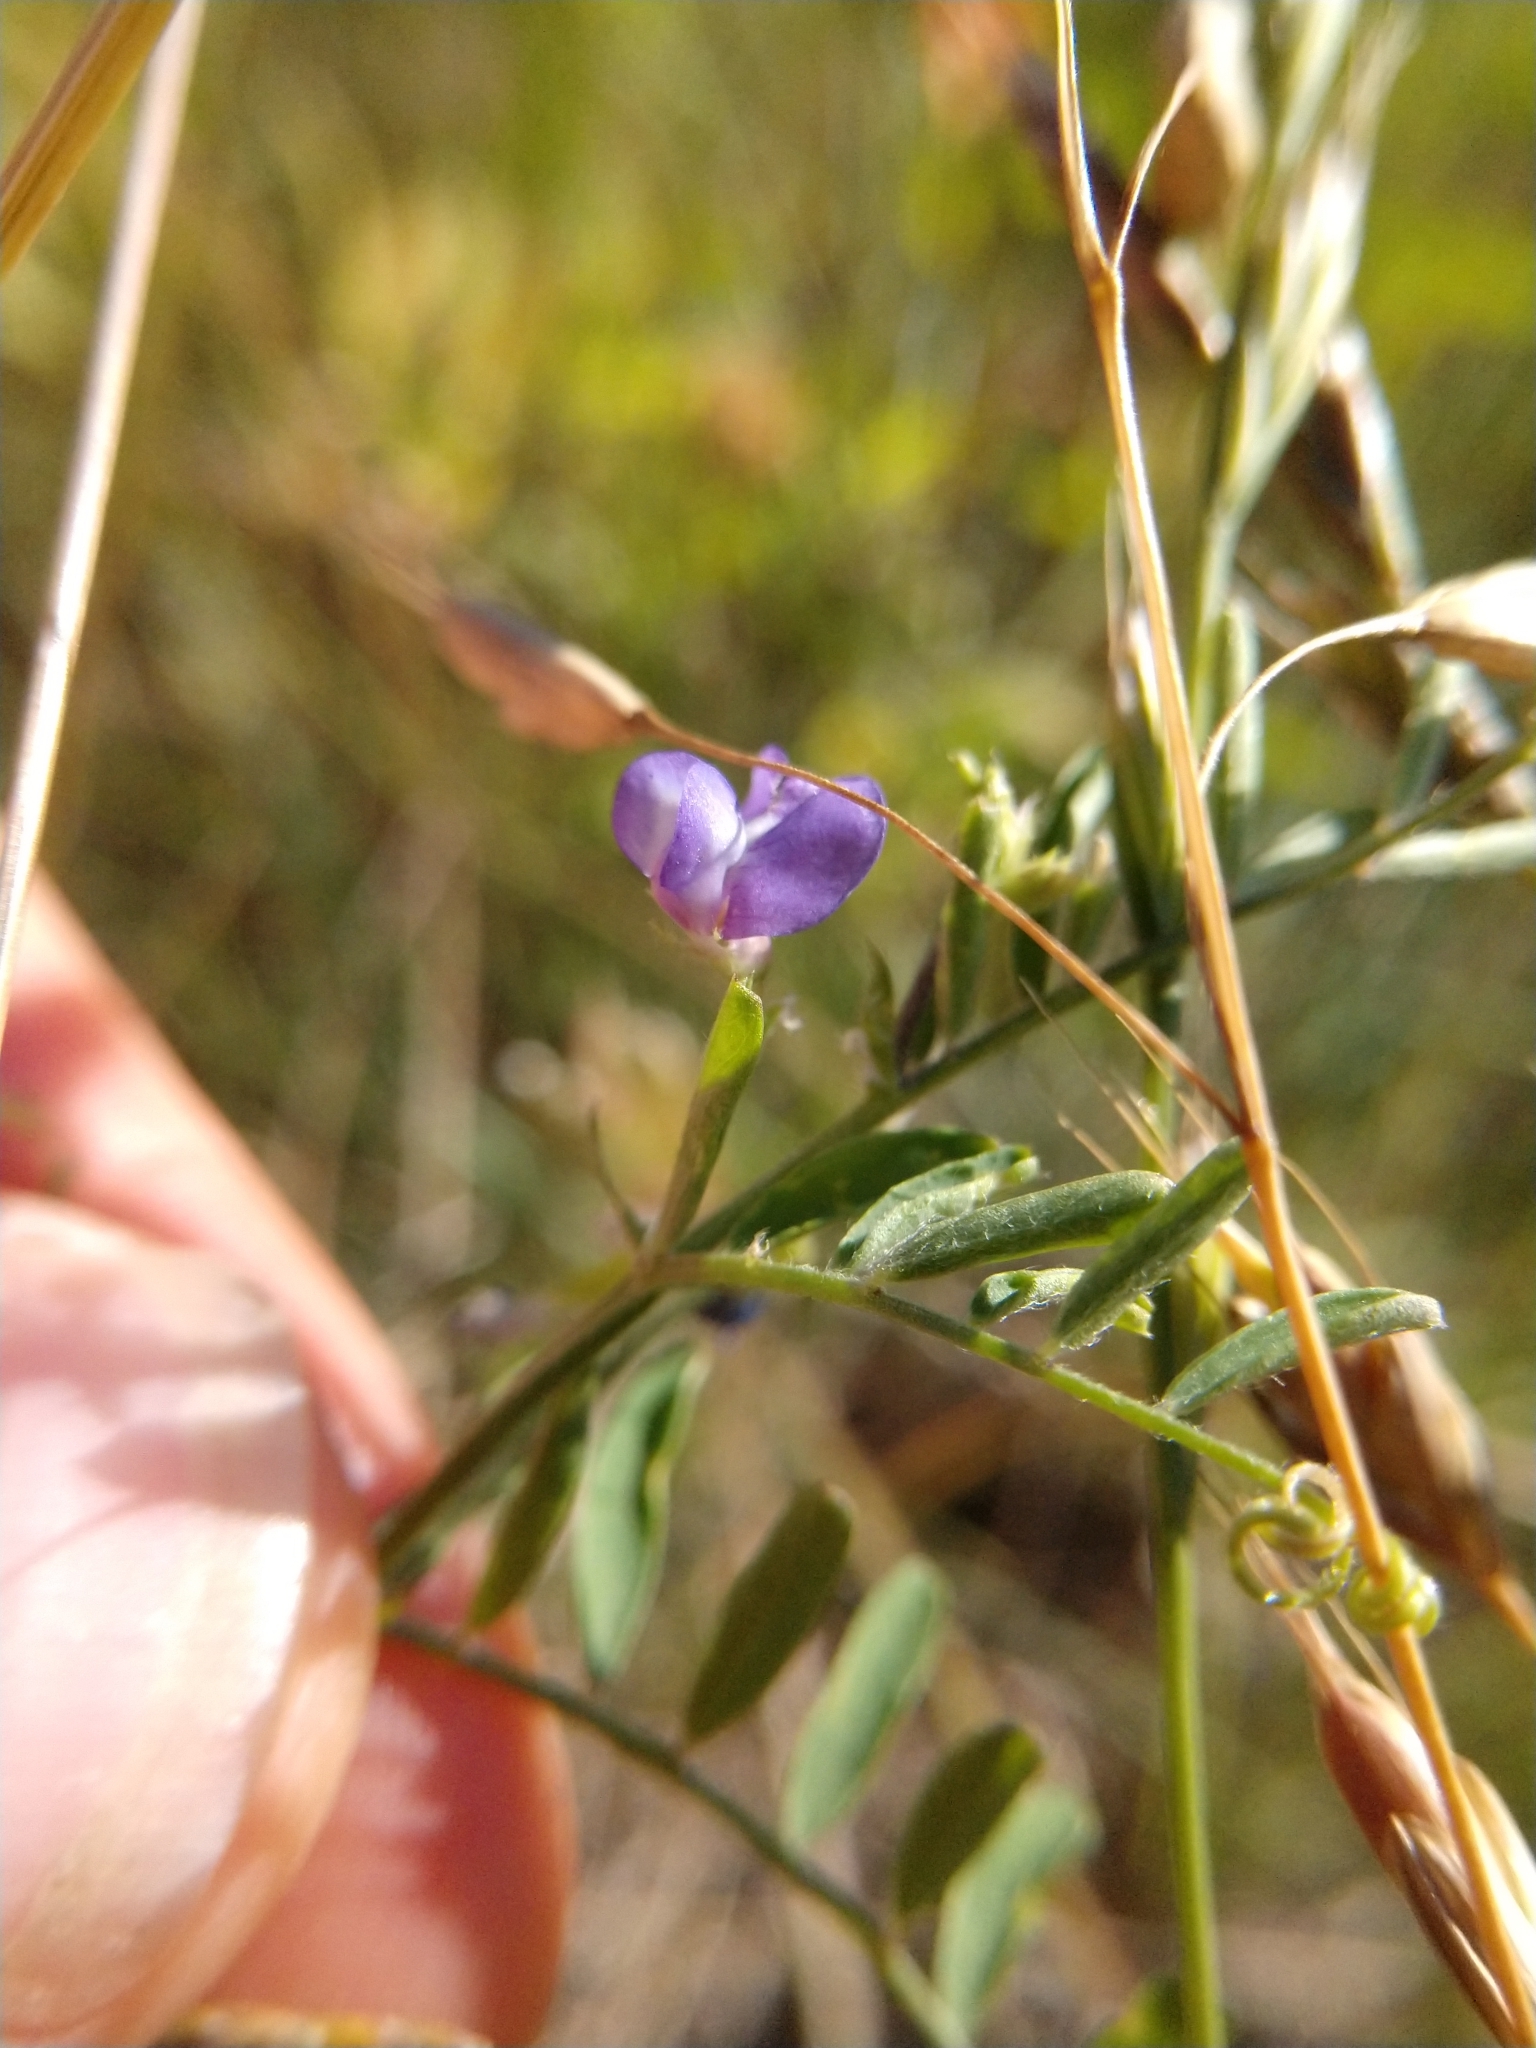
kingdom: Plantae
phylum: Tracheophyta
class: Magnoliopsida
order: Fabales
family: Fabaceae
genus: Vicia
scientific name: Vicia ludoviciana
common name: Louisiana vetch
